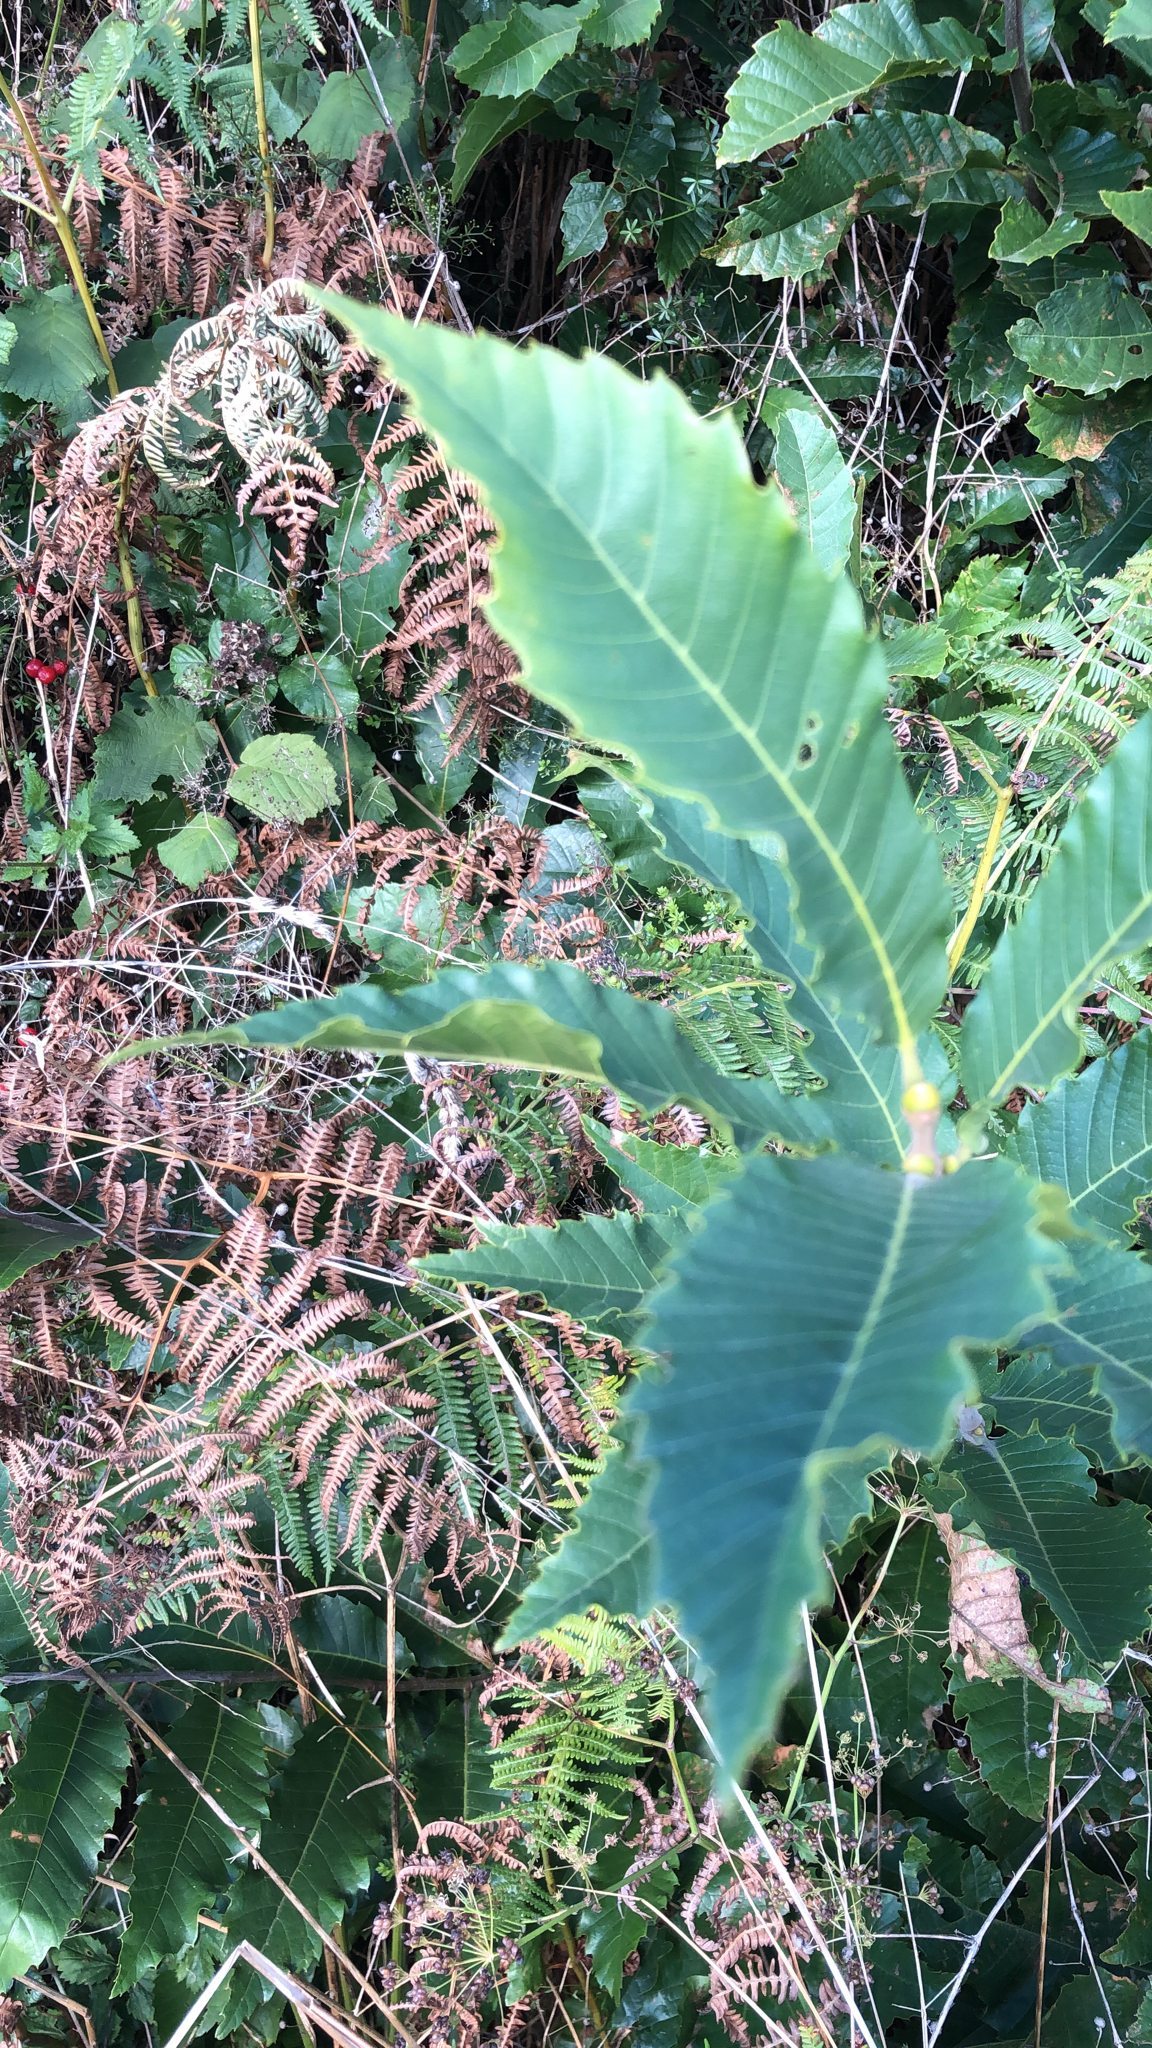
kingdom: Plantae
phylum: Tracheophyta
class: Magnoliopsida
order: Fagales
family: Fagaceae
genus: Castanea
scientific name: Castanea sativa
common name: Sweet chestnut
